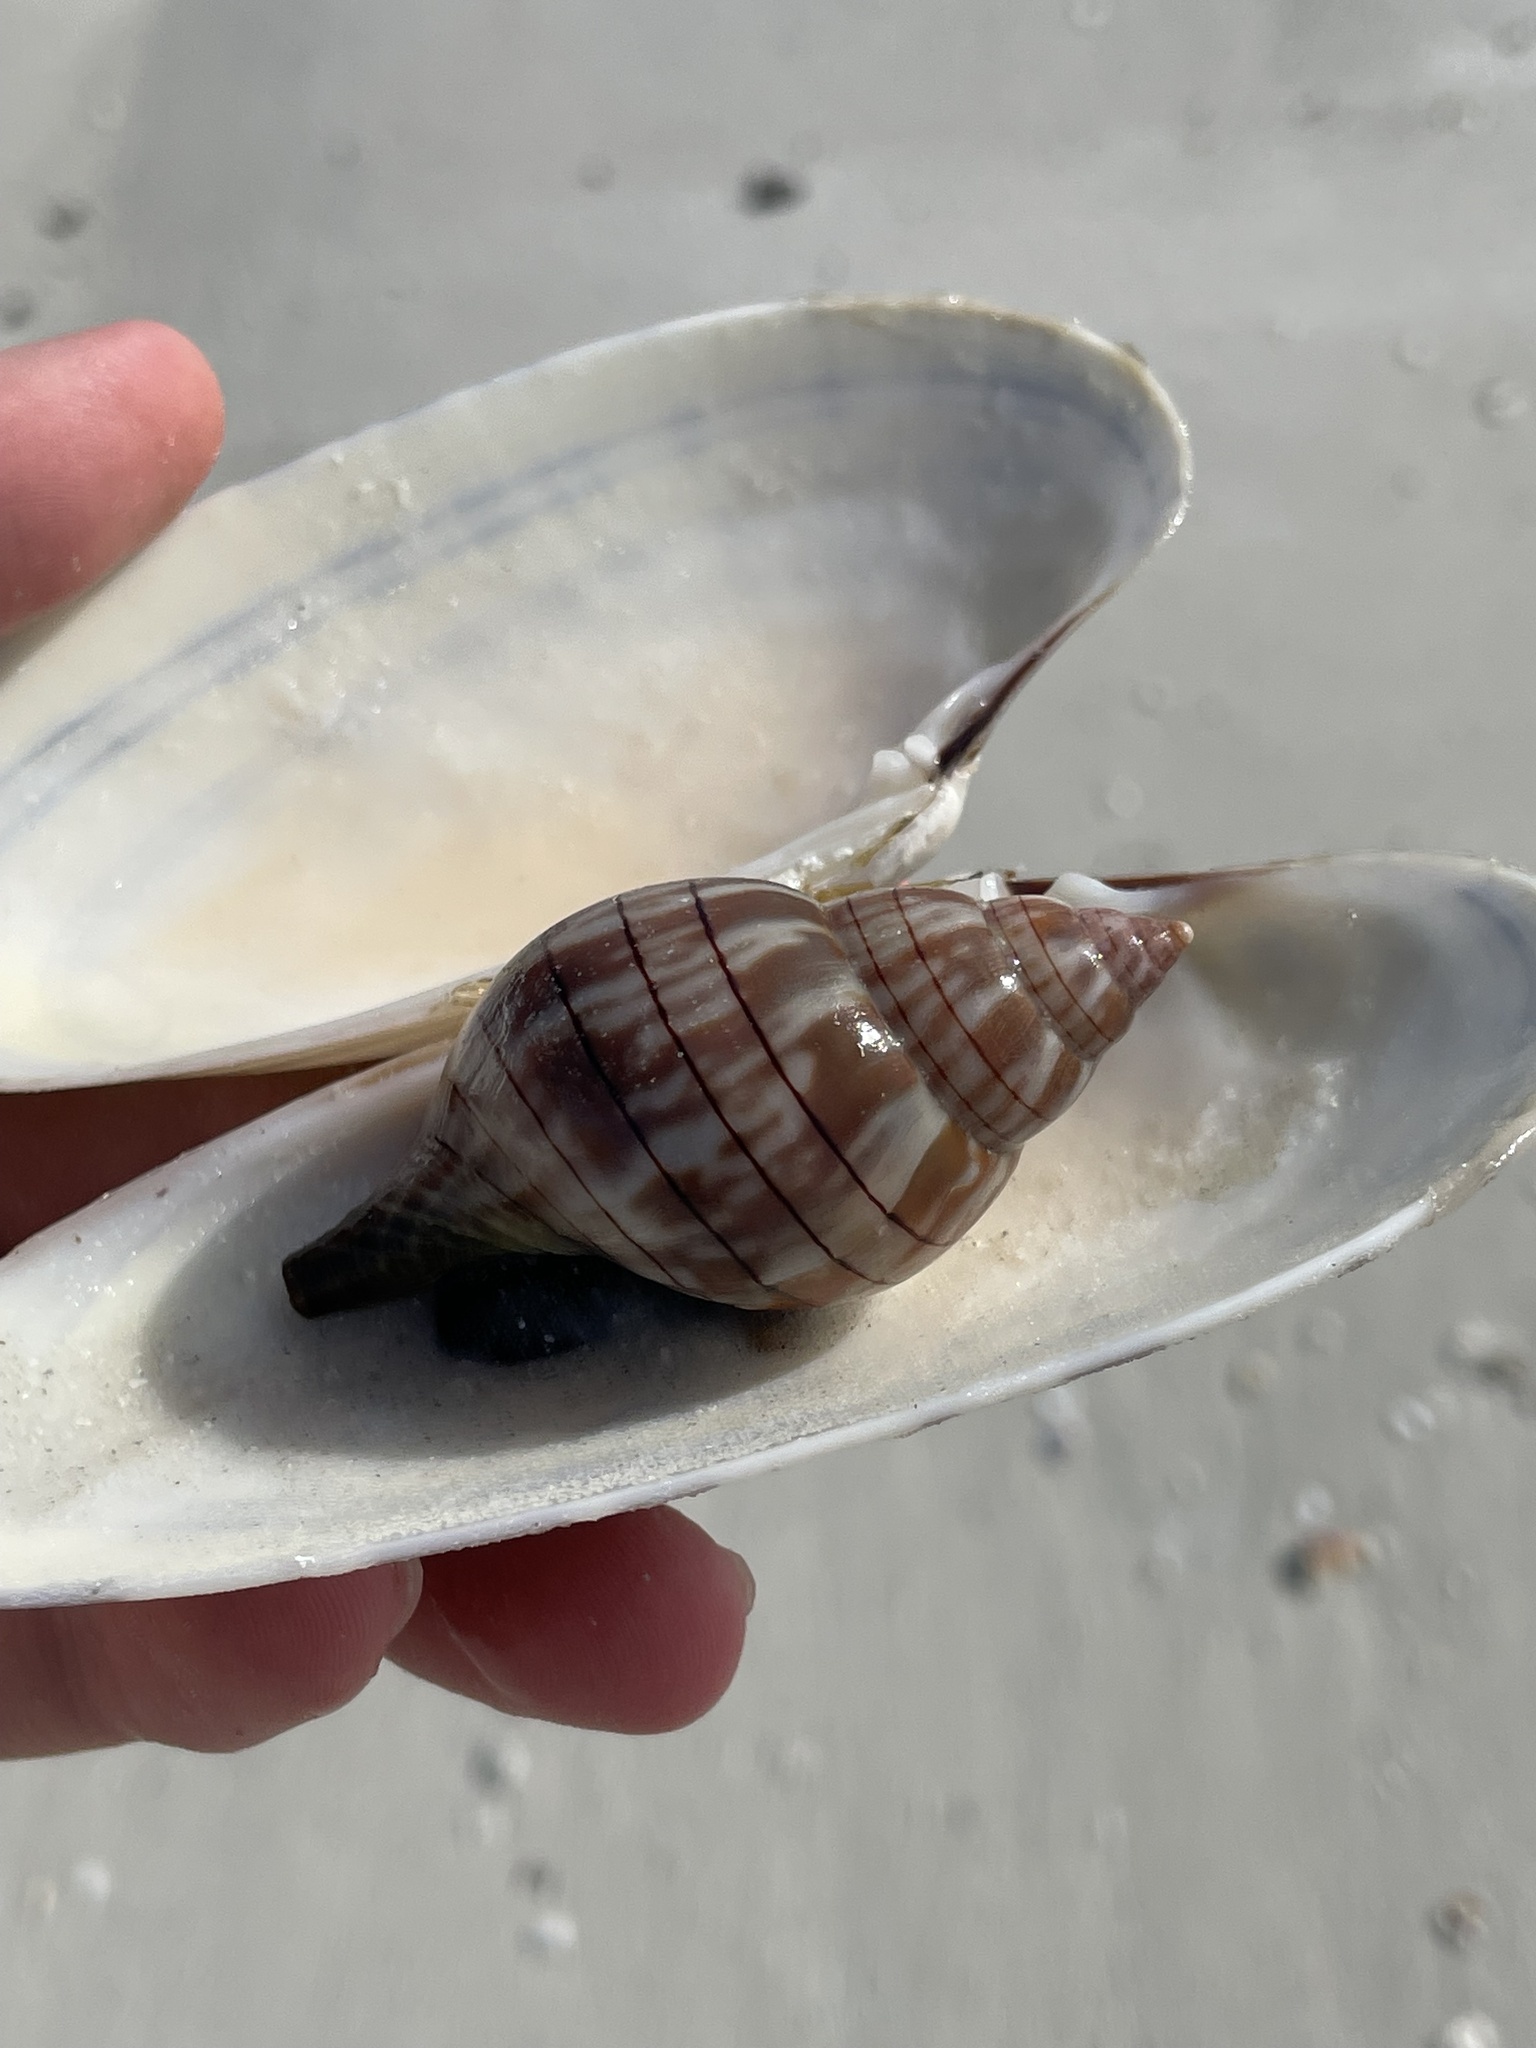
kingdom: Animalia
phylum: Mollusca
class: Gastropoda
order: Neogastropoda
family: Fasciolariidae
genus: Cinctura
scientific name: Cinctura hunteria
